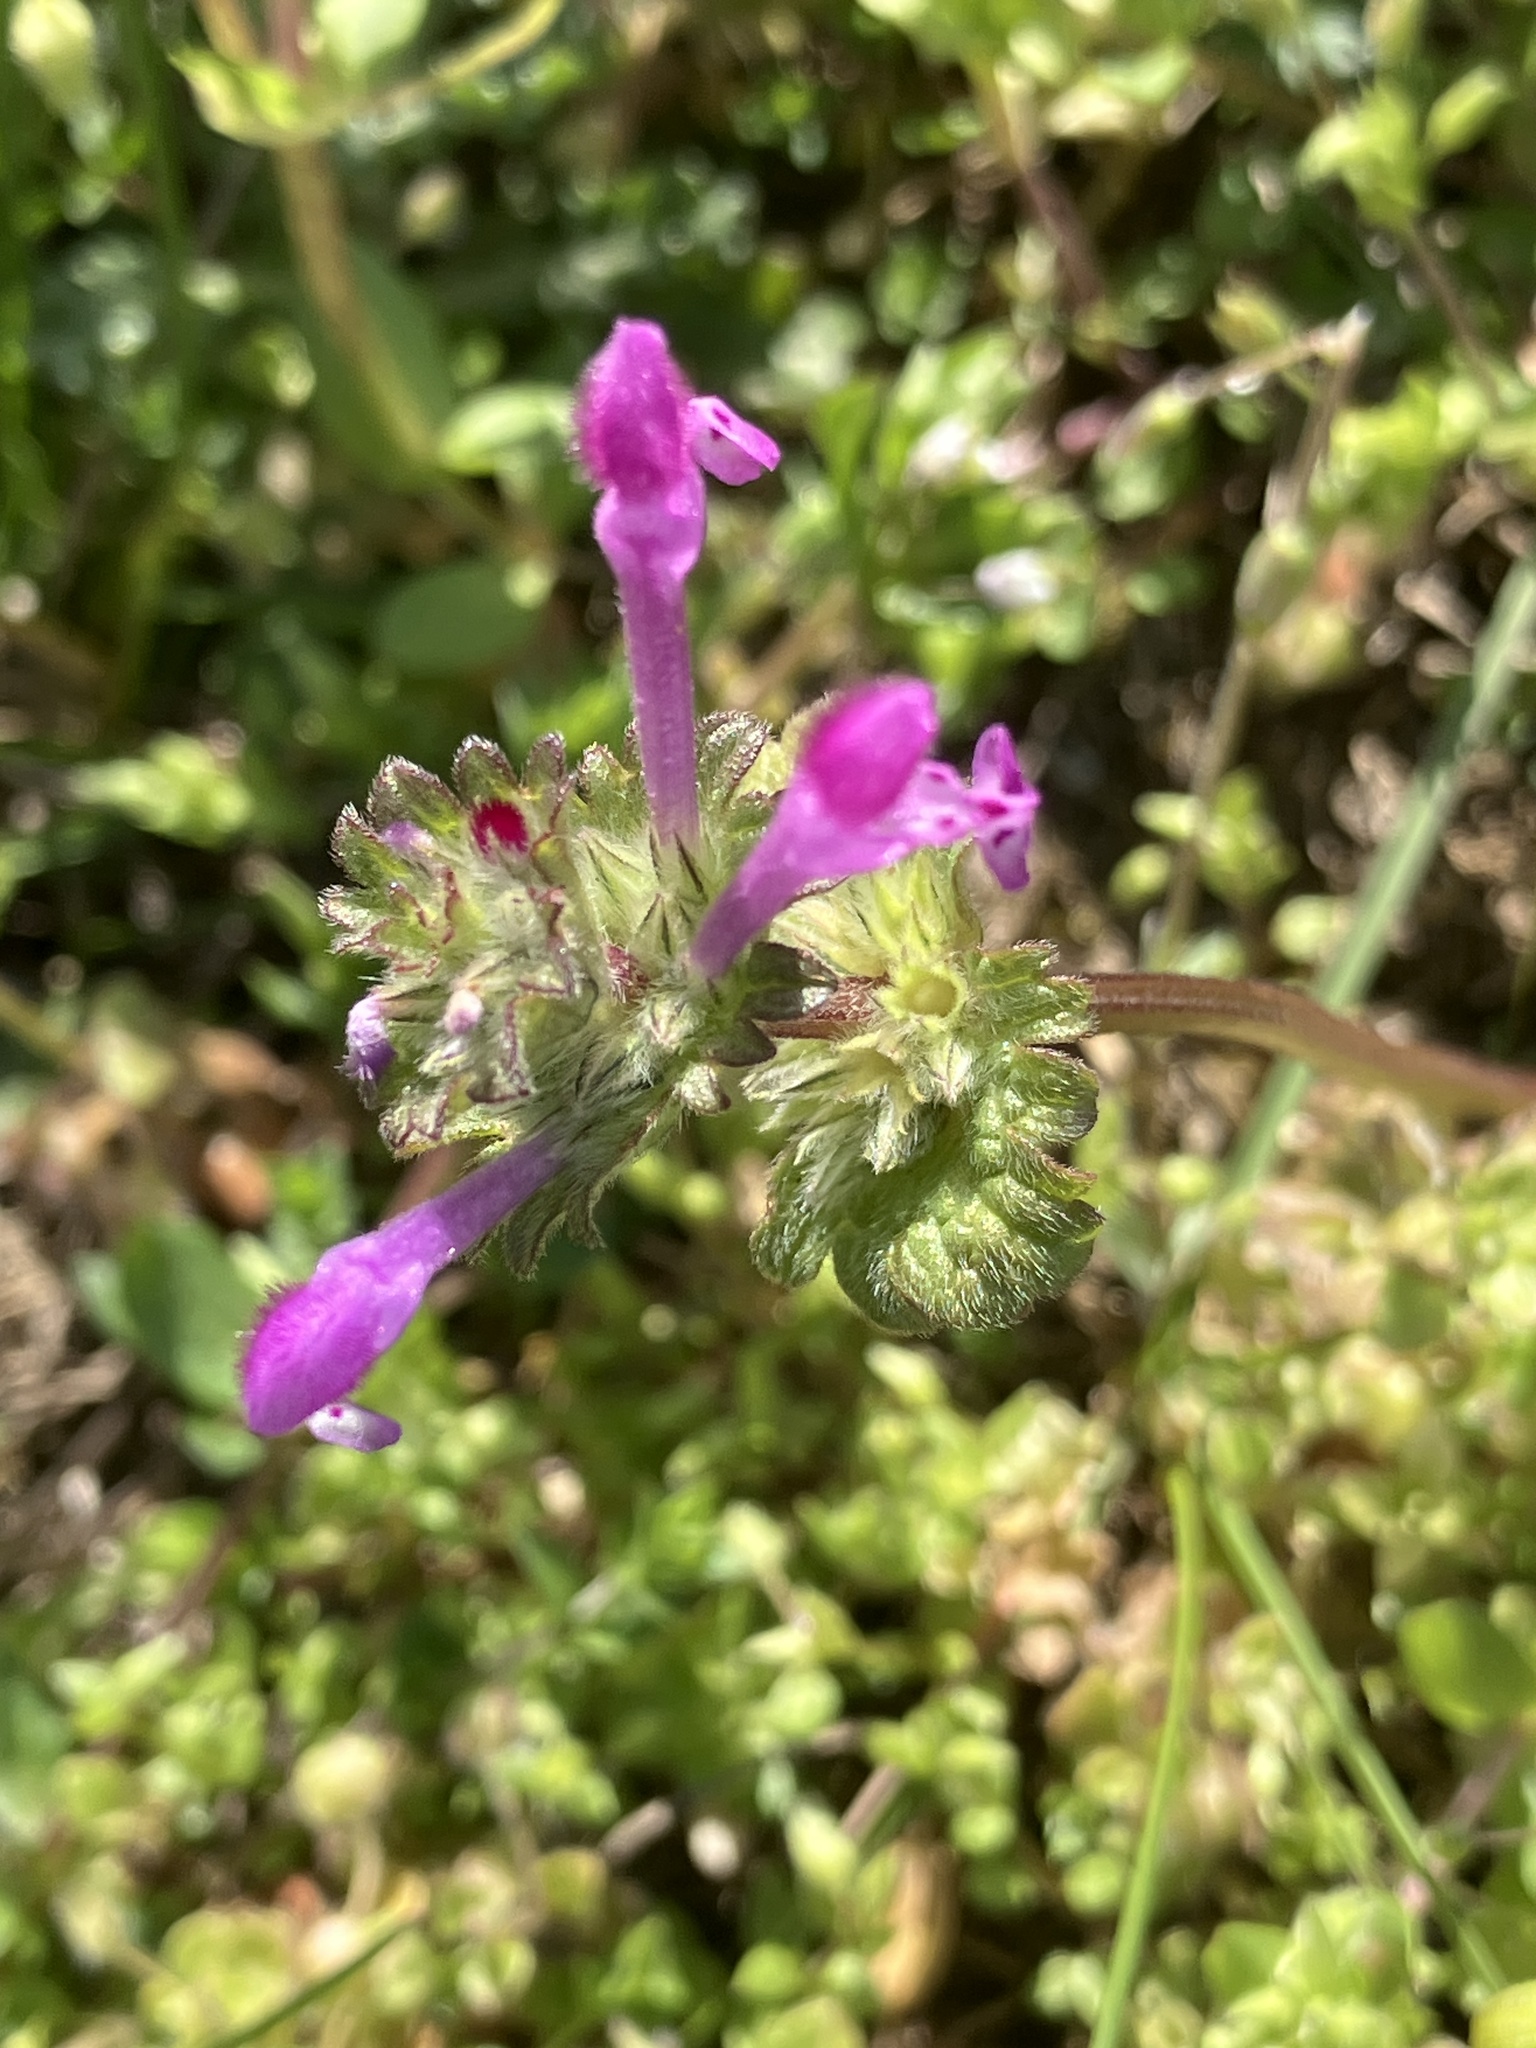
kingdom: Plantae
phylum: Tracheophyta
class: Magnoliopsida
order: Lamiales
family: Lamiaceae
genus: Lamium
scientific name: Lamium amplexicaule
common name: Henbit dead-nettle
